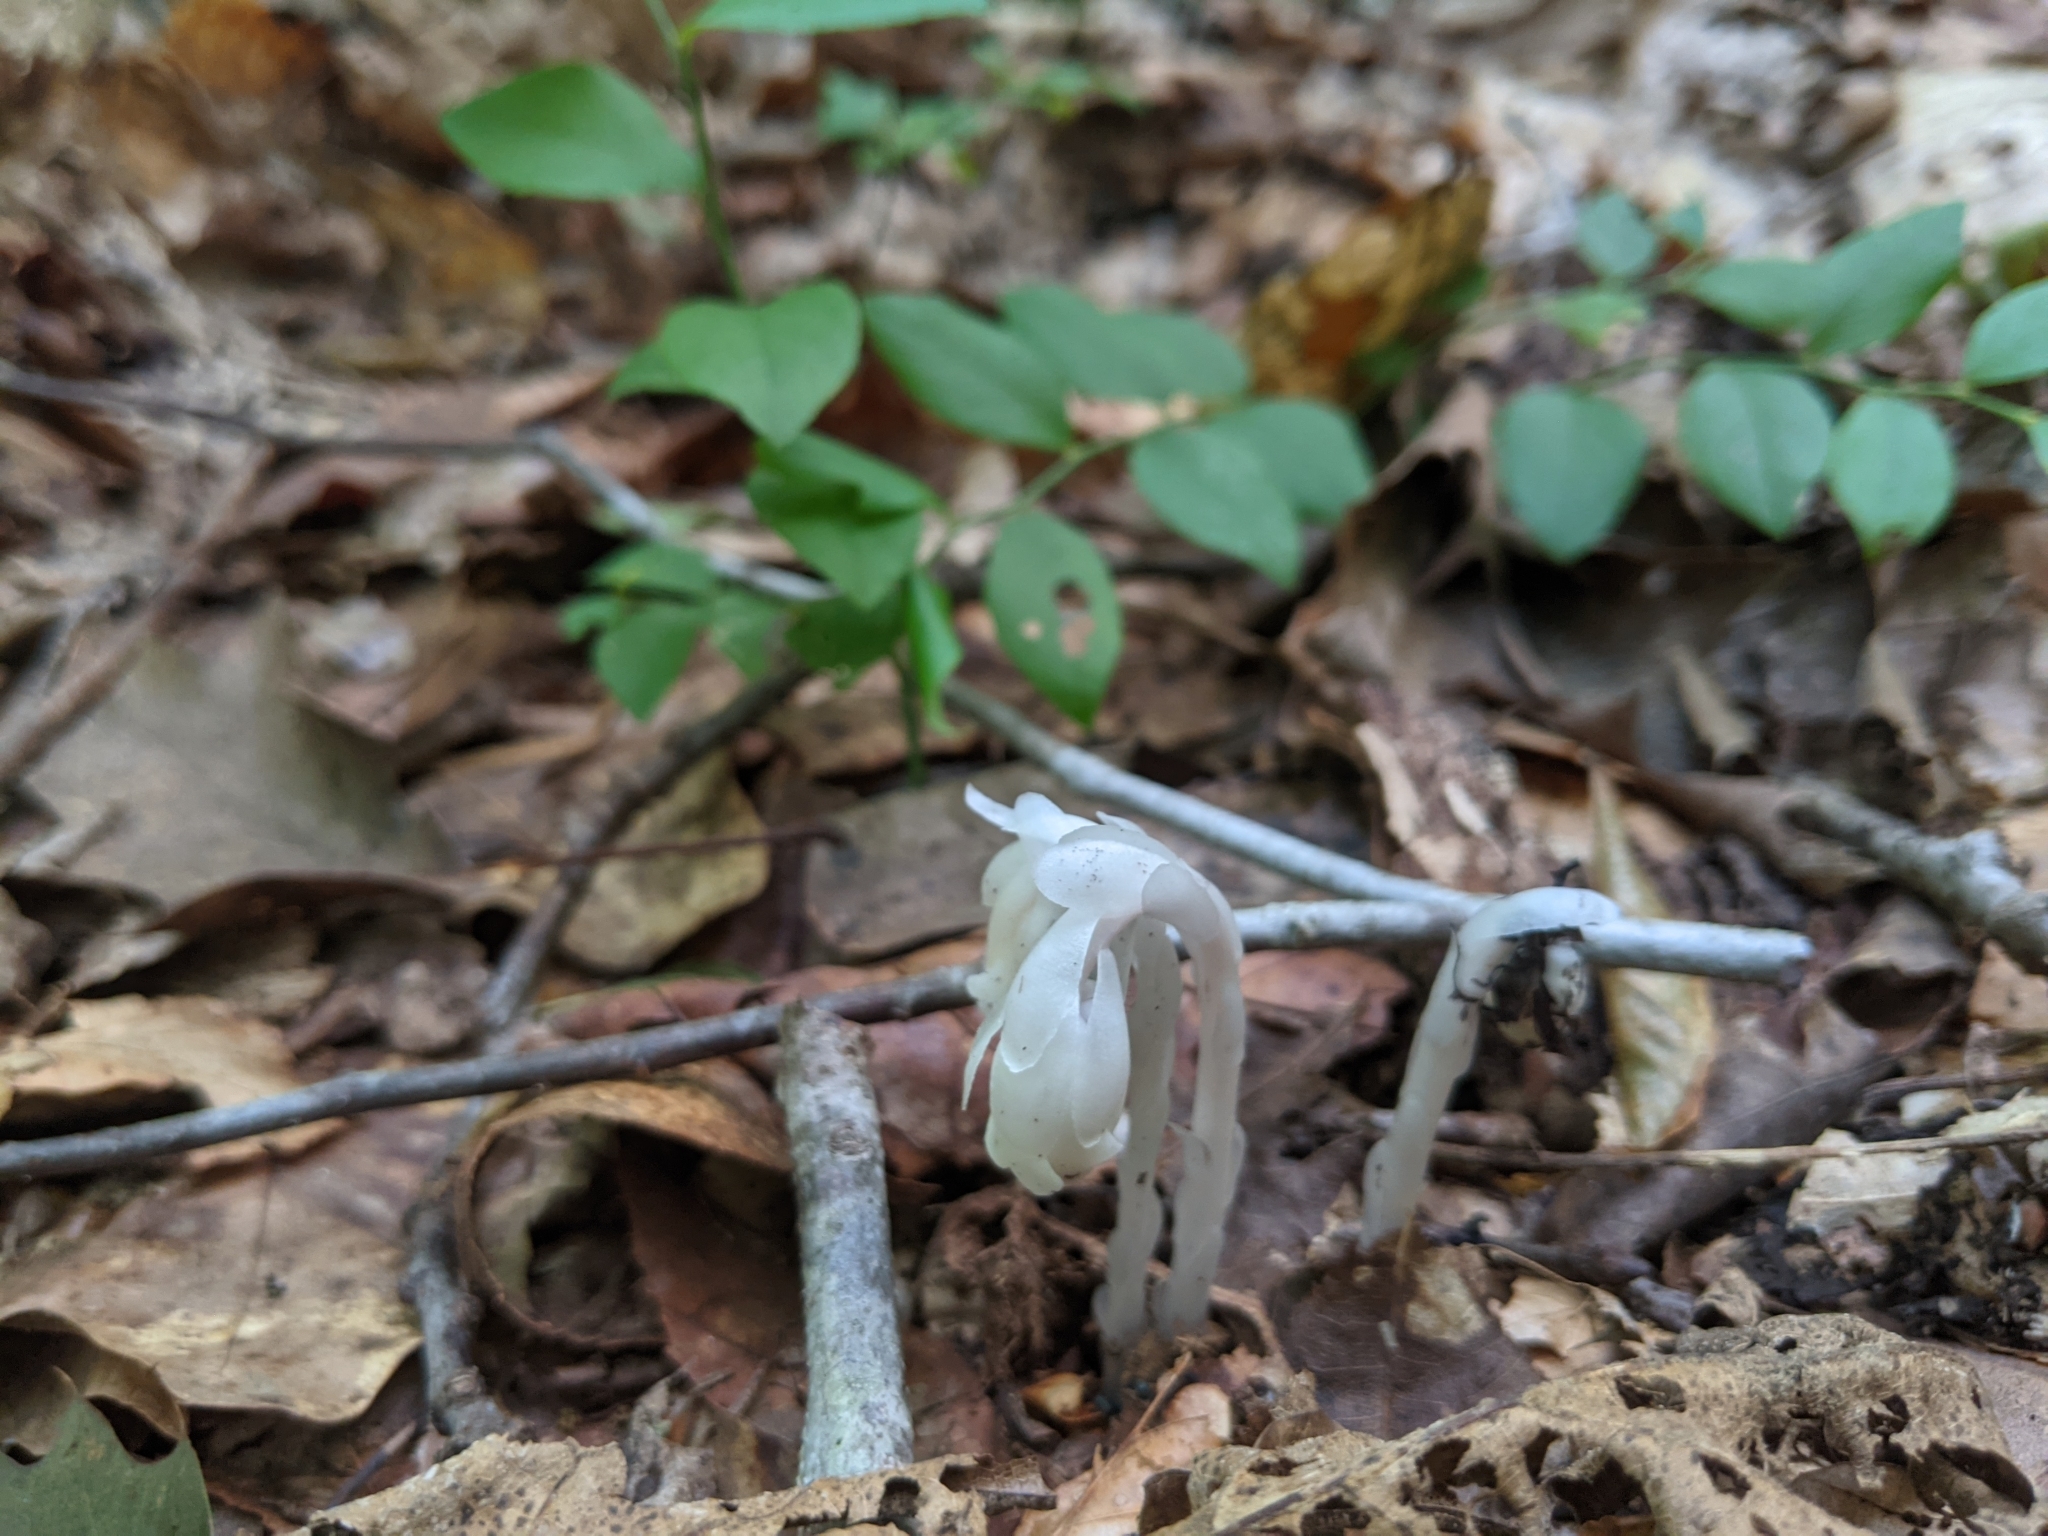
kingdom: Plantae
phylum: Tracheophyta
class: Magnoliopsida
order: Ericales
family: Ericaceae
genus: Monotropa
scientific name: Monotropa uniflora
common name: Convulsion root
